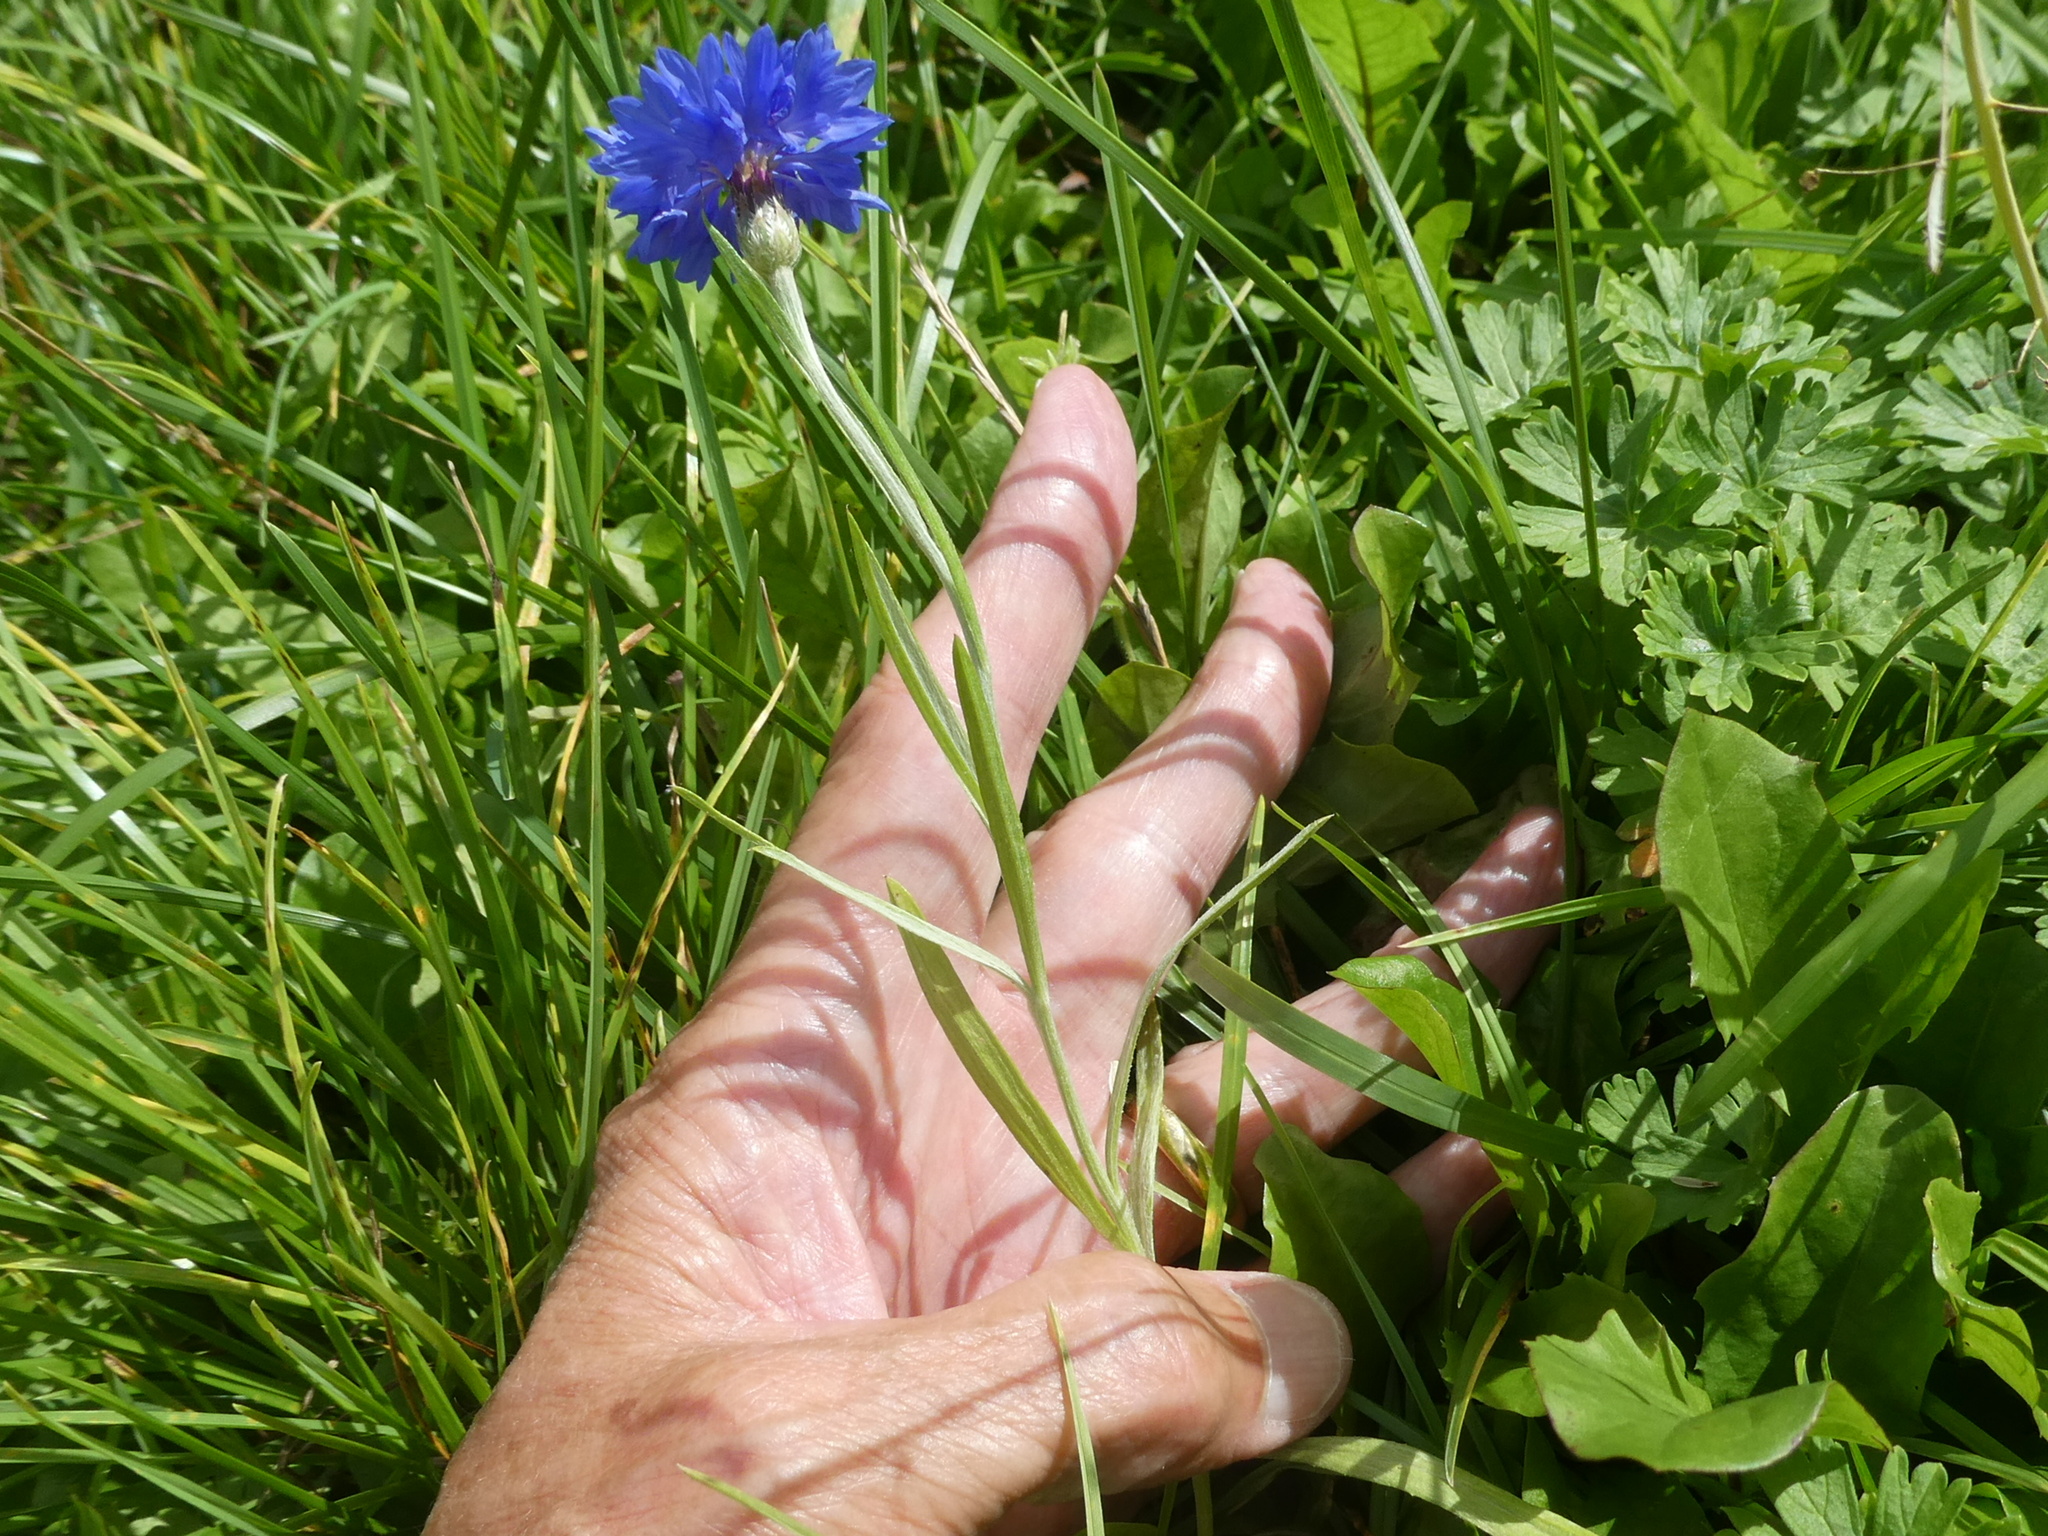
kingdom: Plantae
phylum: Tracheophyta
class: Magnoliopsida
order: Asterales
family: Asteraceae
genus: Centaurea
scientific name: Centaurea cyanus
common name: Cornflower
